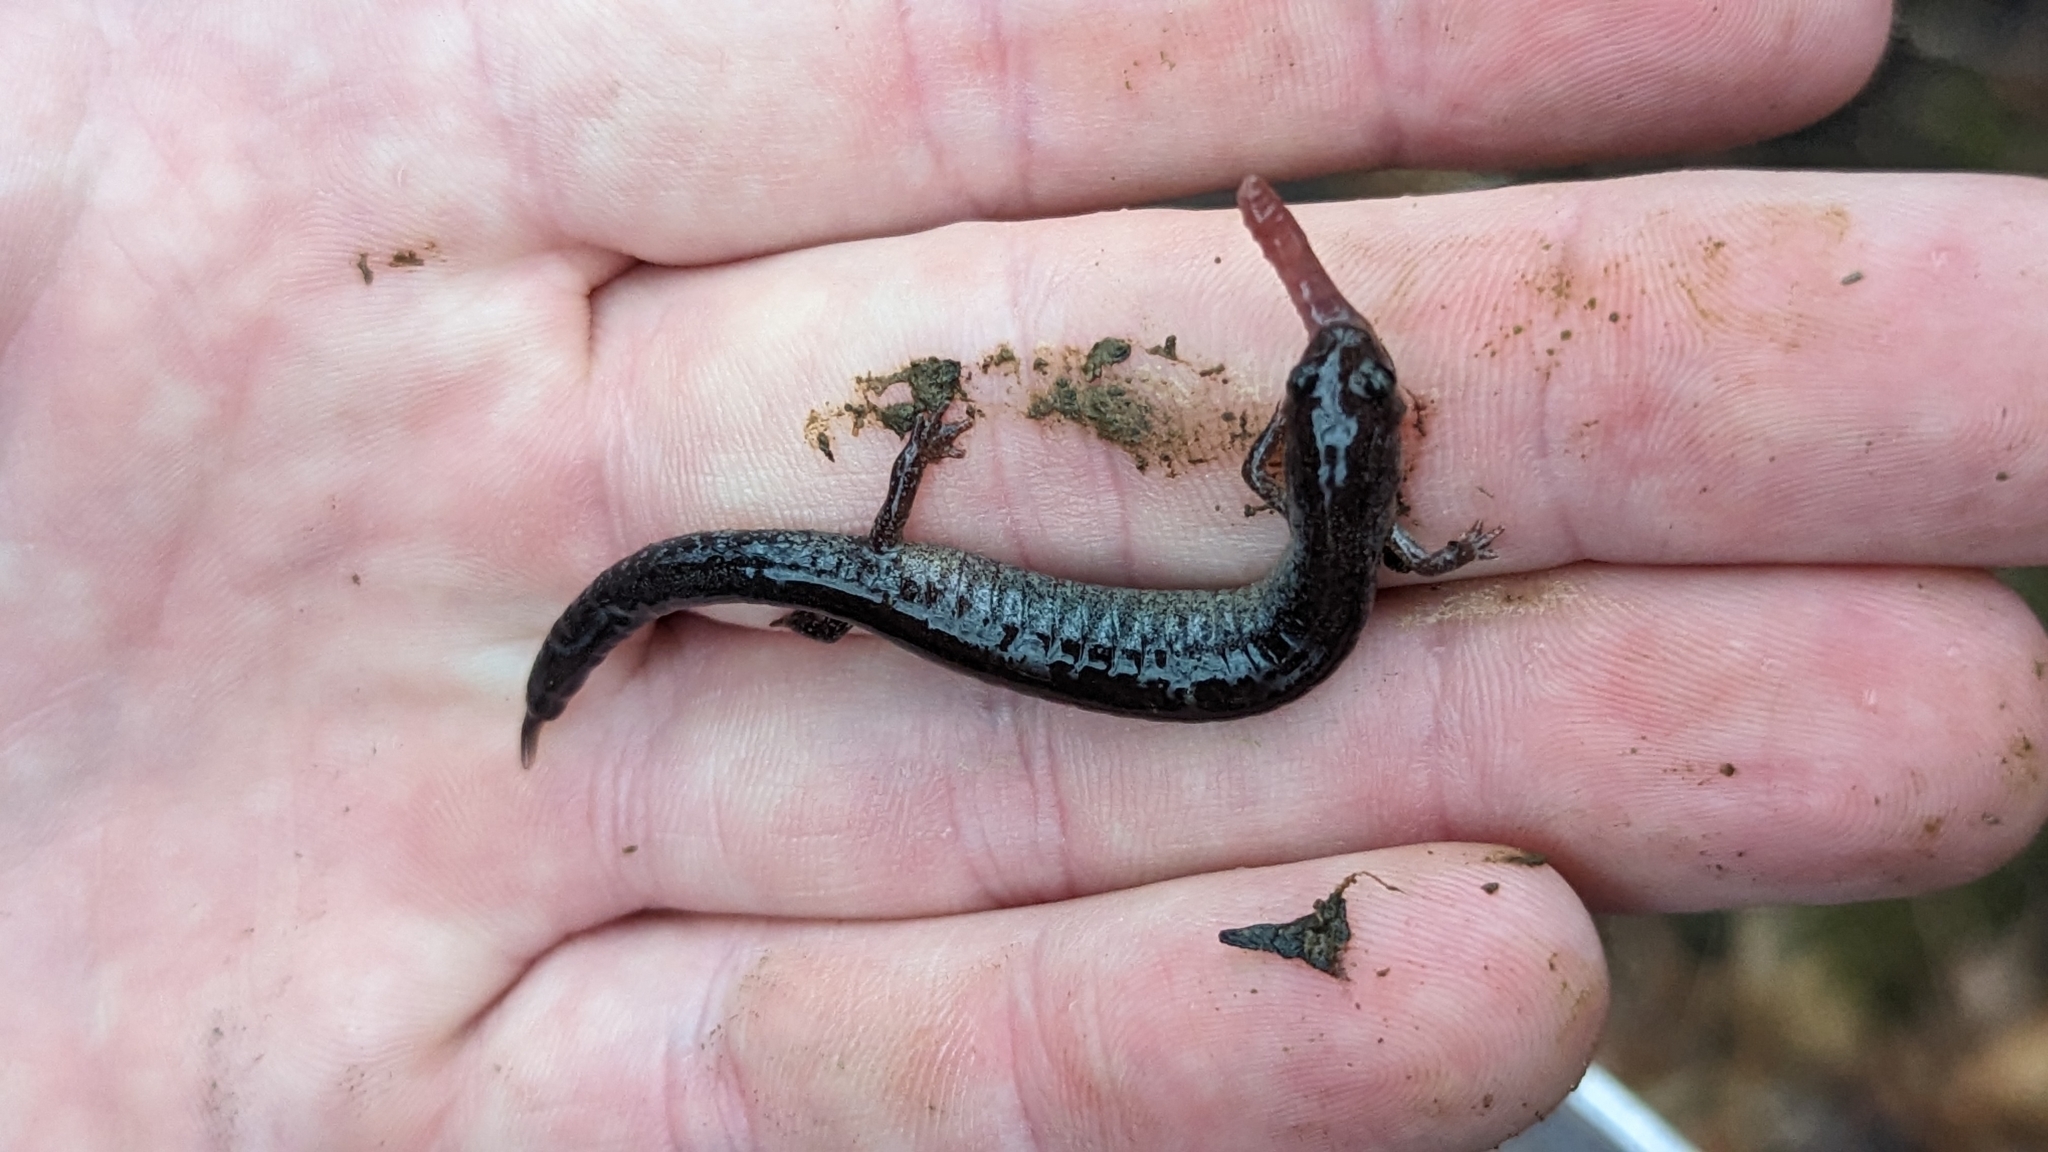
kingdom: Animalia
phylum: Chordata
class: Amphibia
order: Caudata
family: Plethodontidae
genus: Plethodon
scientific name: Plethodon cinereus
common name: Redback salamander
